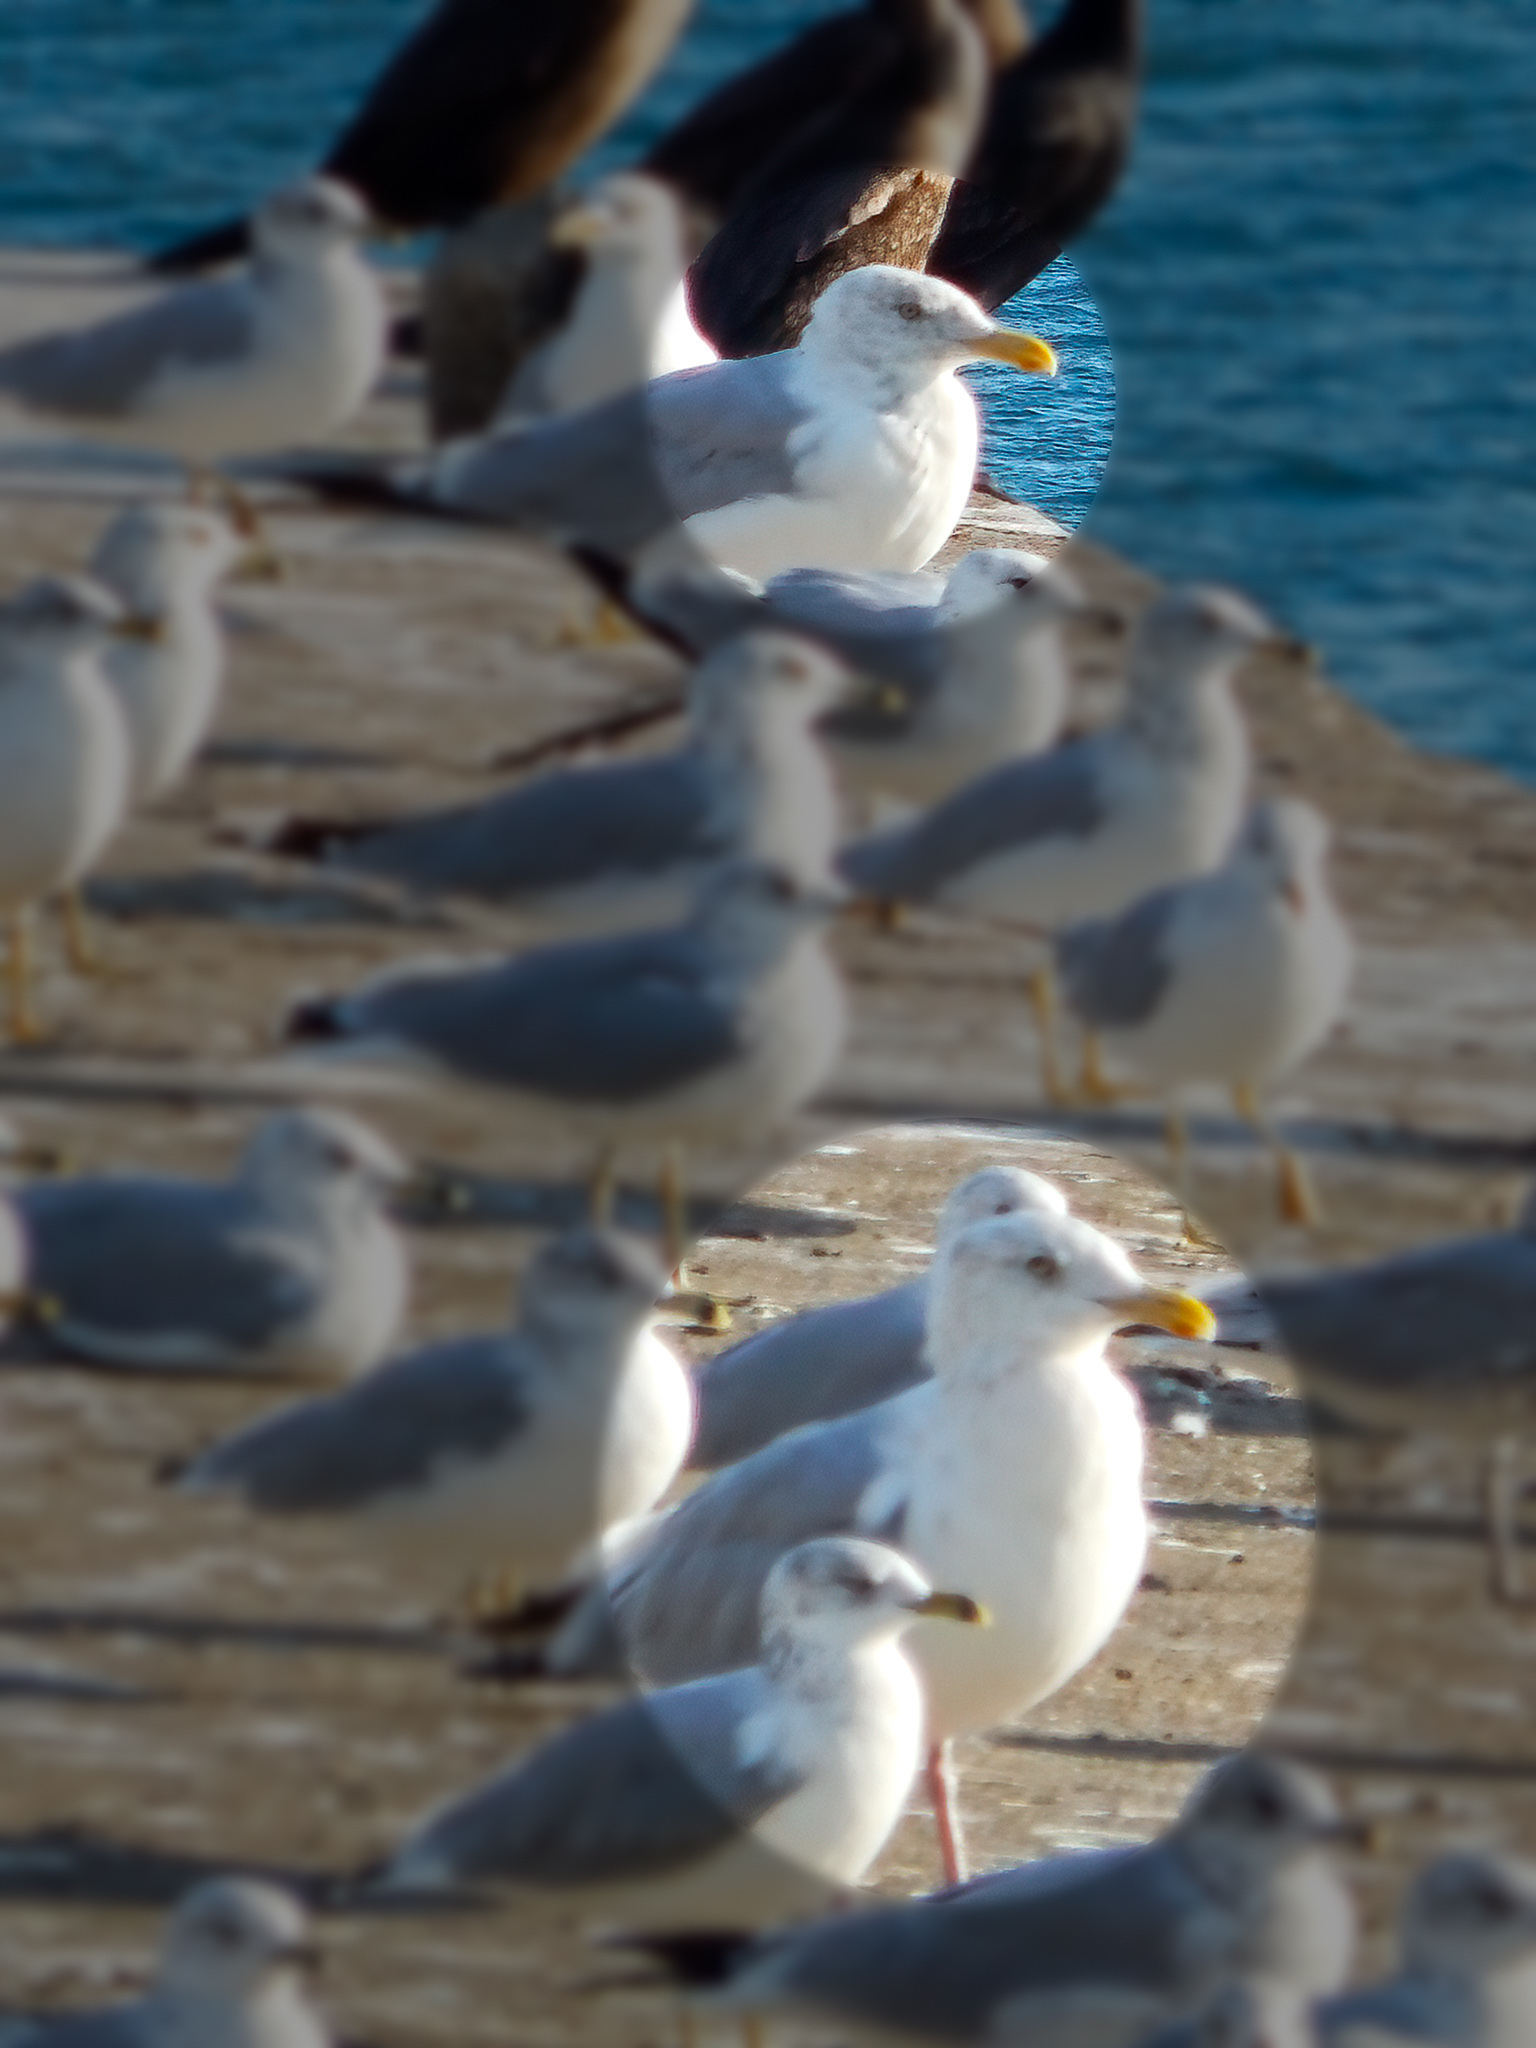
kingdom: Animalia
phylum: Chordata
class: Aves
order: Charadriiformes
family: Laridae
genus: Larus
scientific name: Larus argentatus
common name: Herring gull
